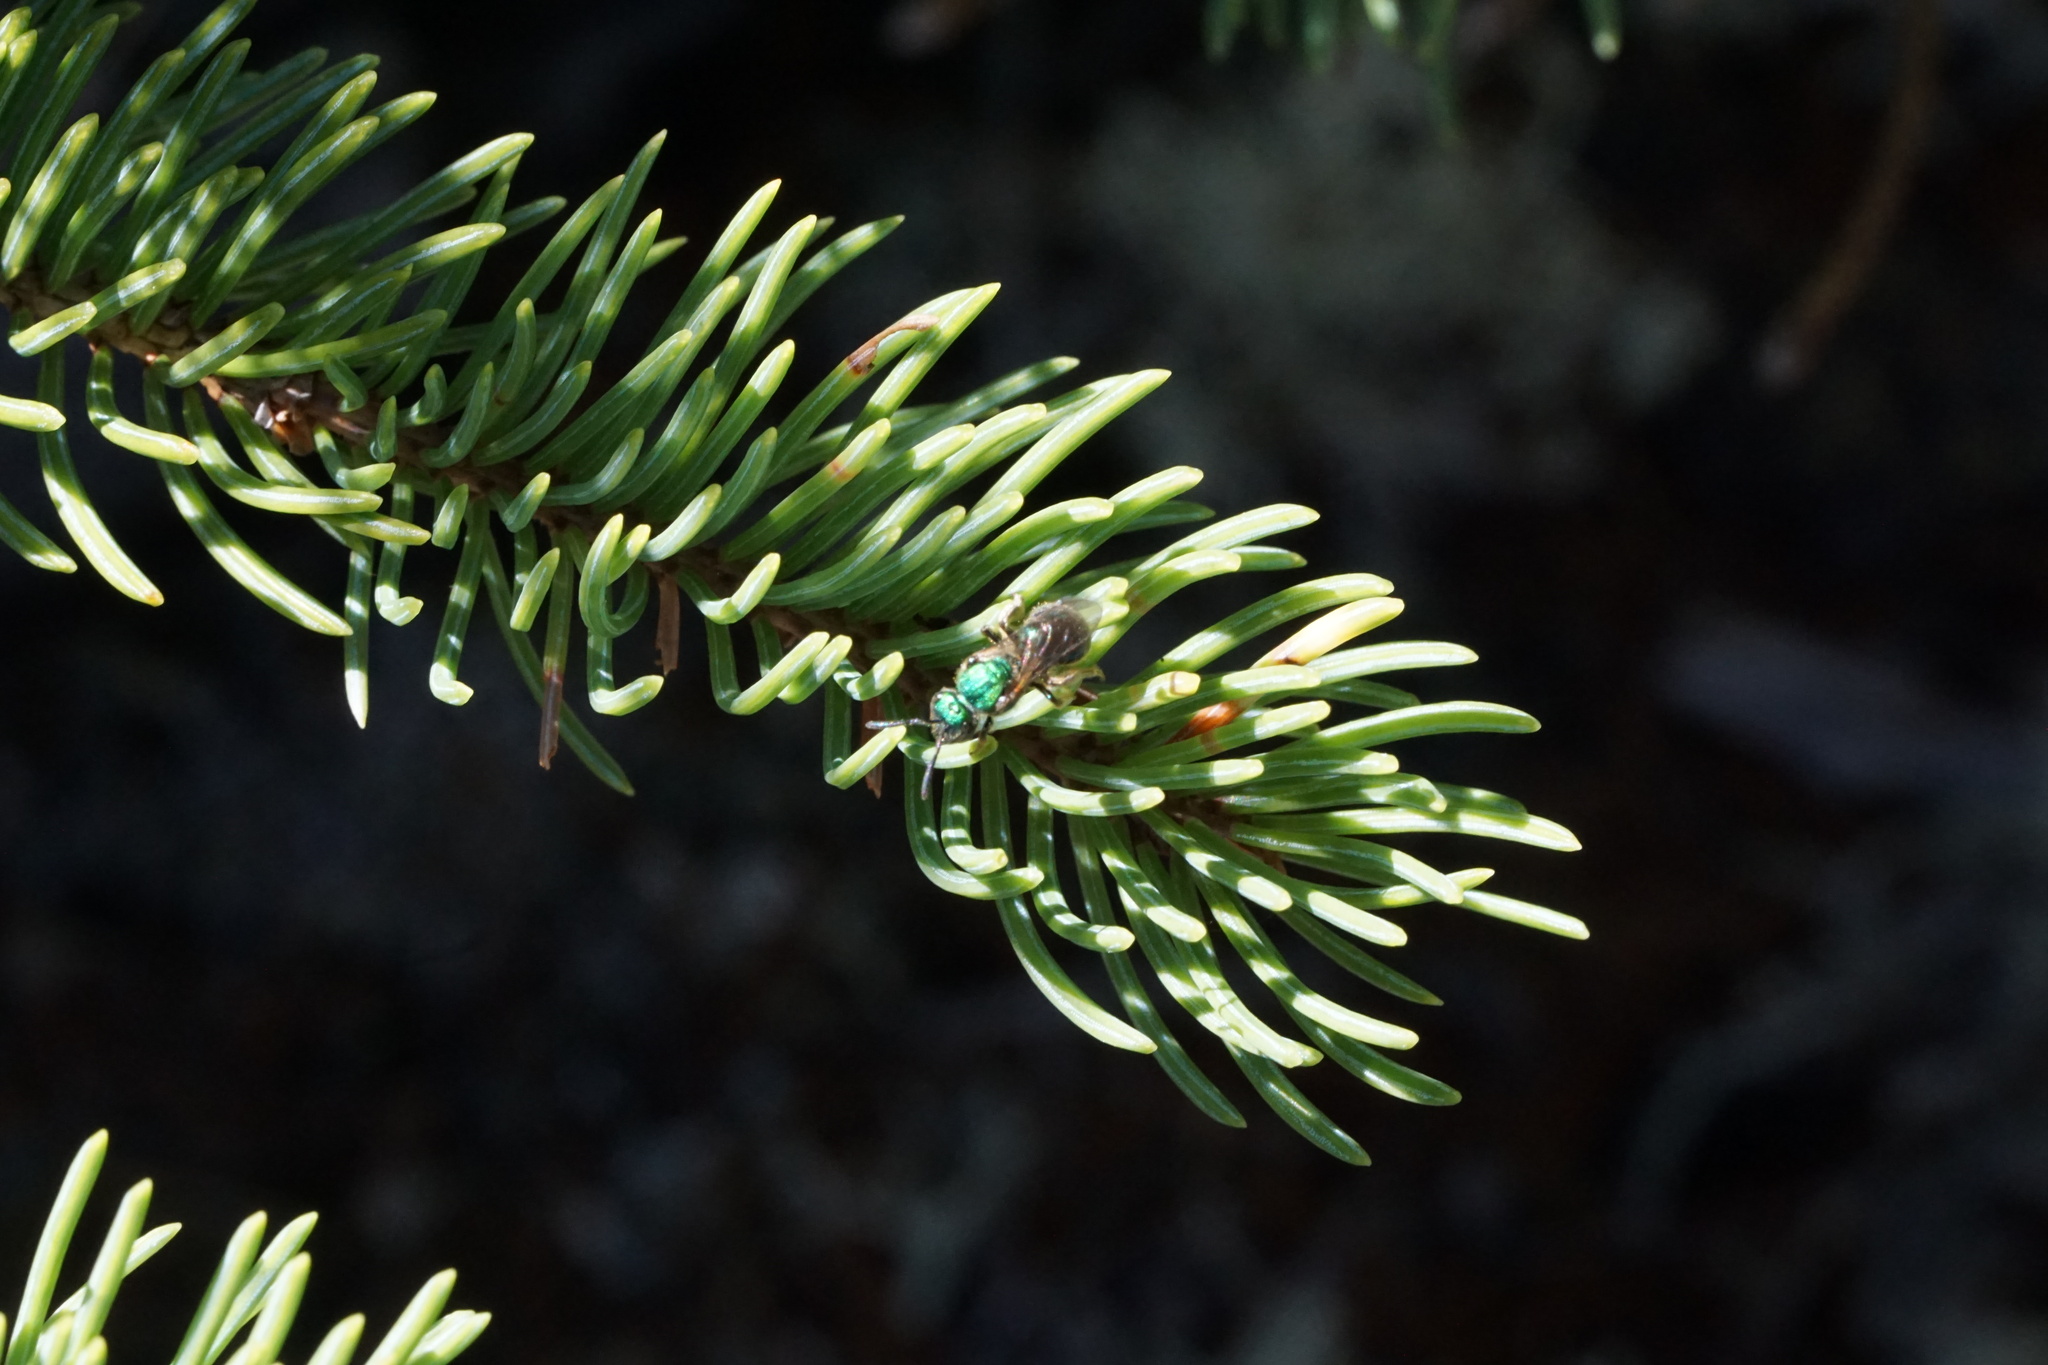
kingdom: Animalia
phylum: Arthropoda
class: Insecta
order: Hymenoptera
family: Halictidae
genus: Augochlorella
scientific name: Augochlorella aurata
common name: Golden sweat bee
